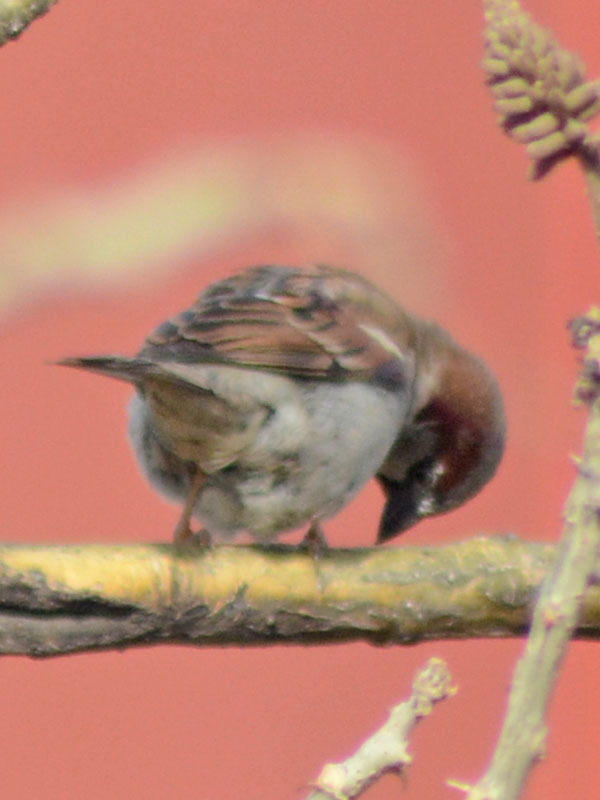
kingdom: Animalia
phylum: Chordata
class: Aves
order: Passeriformes
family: Passeridae
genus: Passer
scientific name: Passer domesticus
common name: House sparrow
